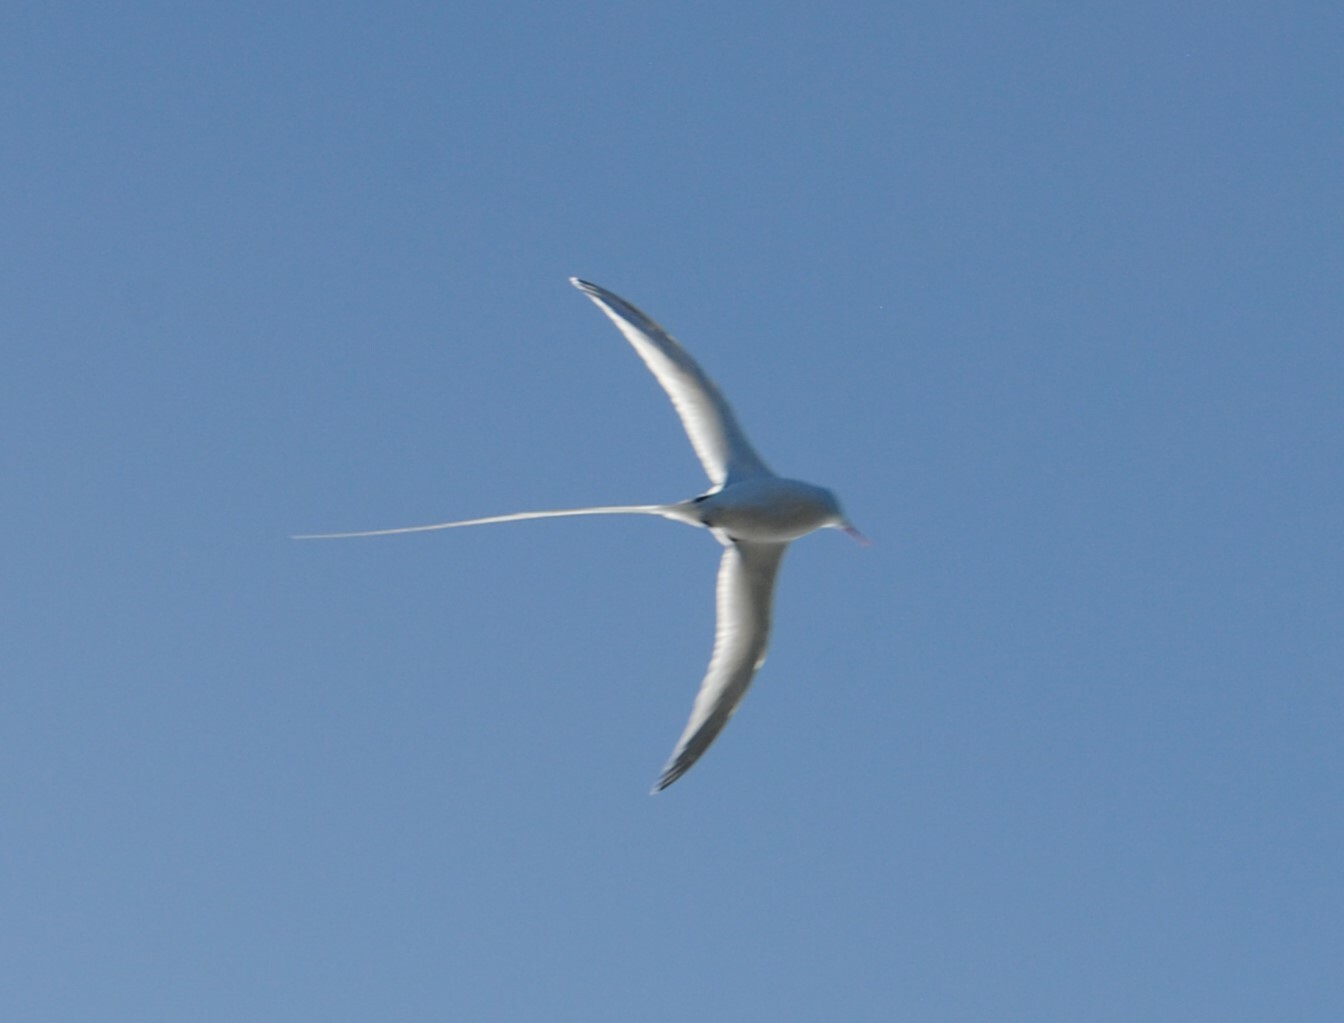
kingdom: Animalia
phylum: Chordata
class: Aves
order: Phaethontiformes
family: Phaethontidae
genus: Phaethon
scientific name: Phaethon aethereus
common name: Red-billed tropicbird
